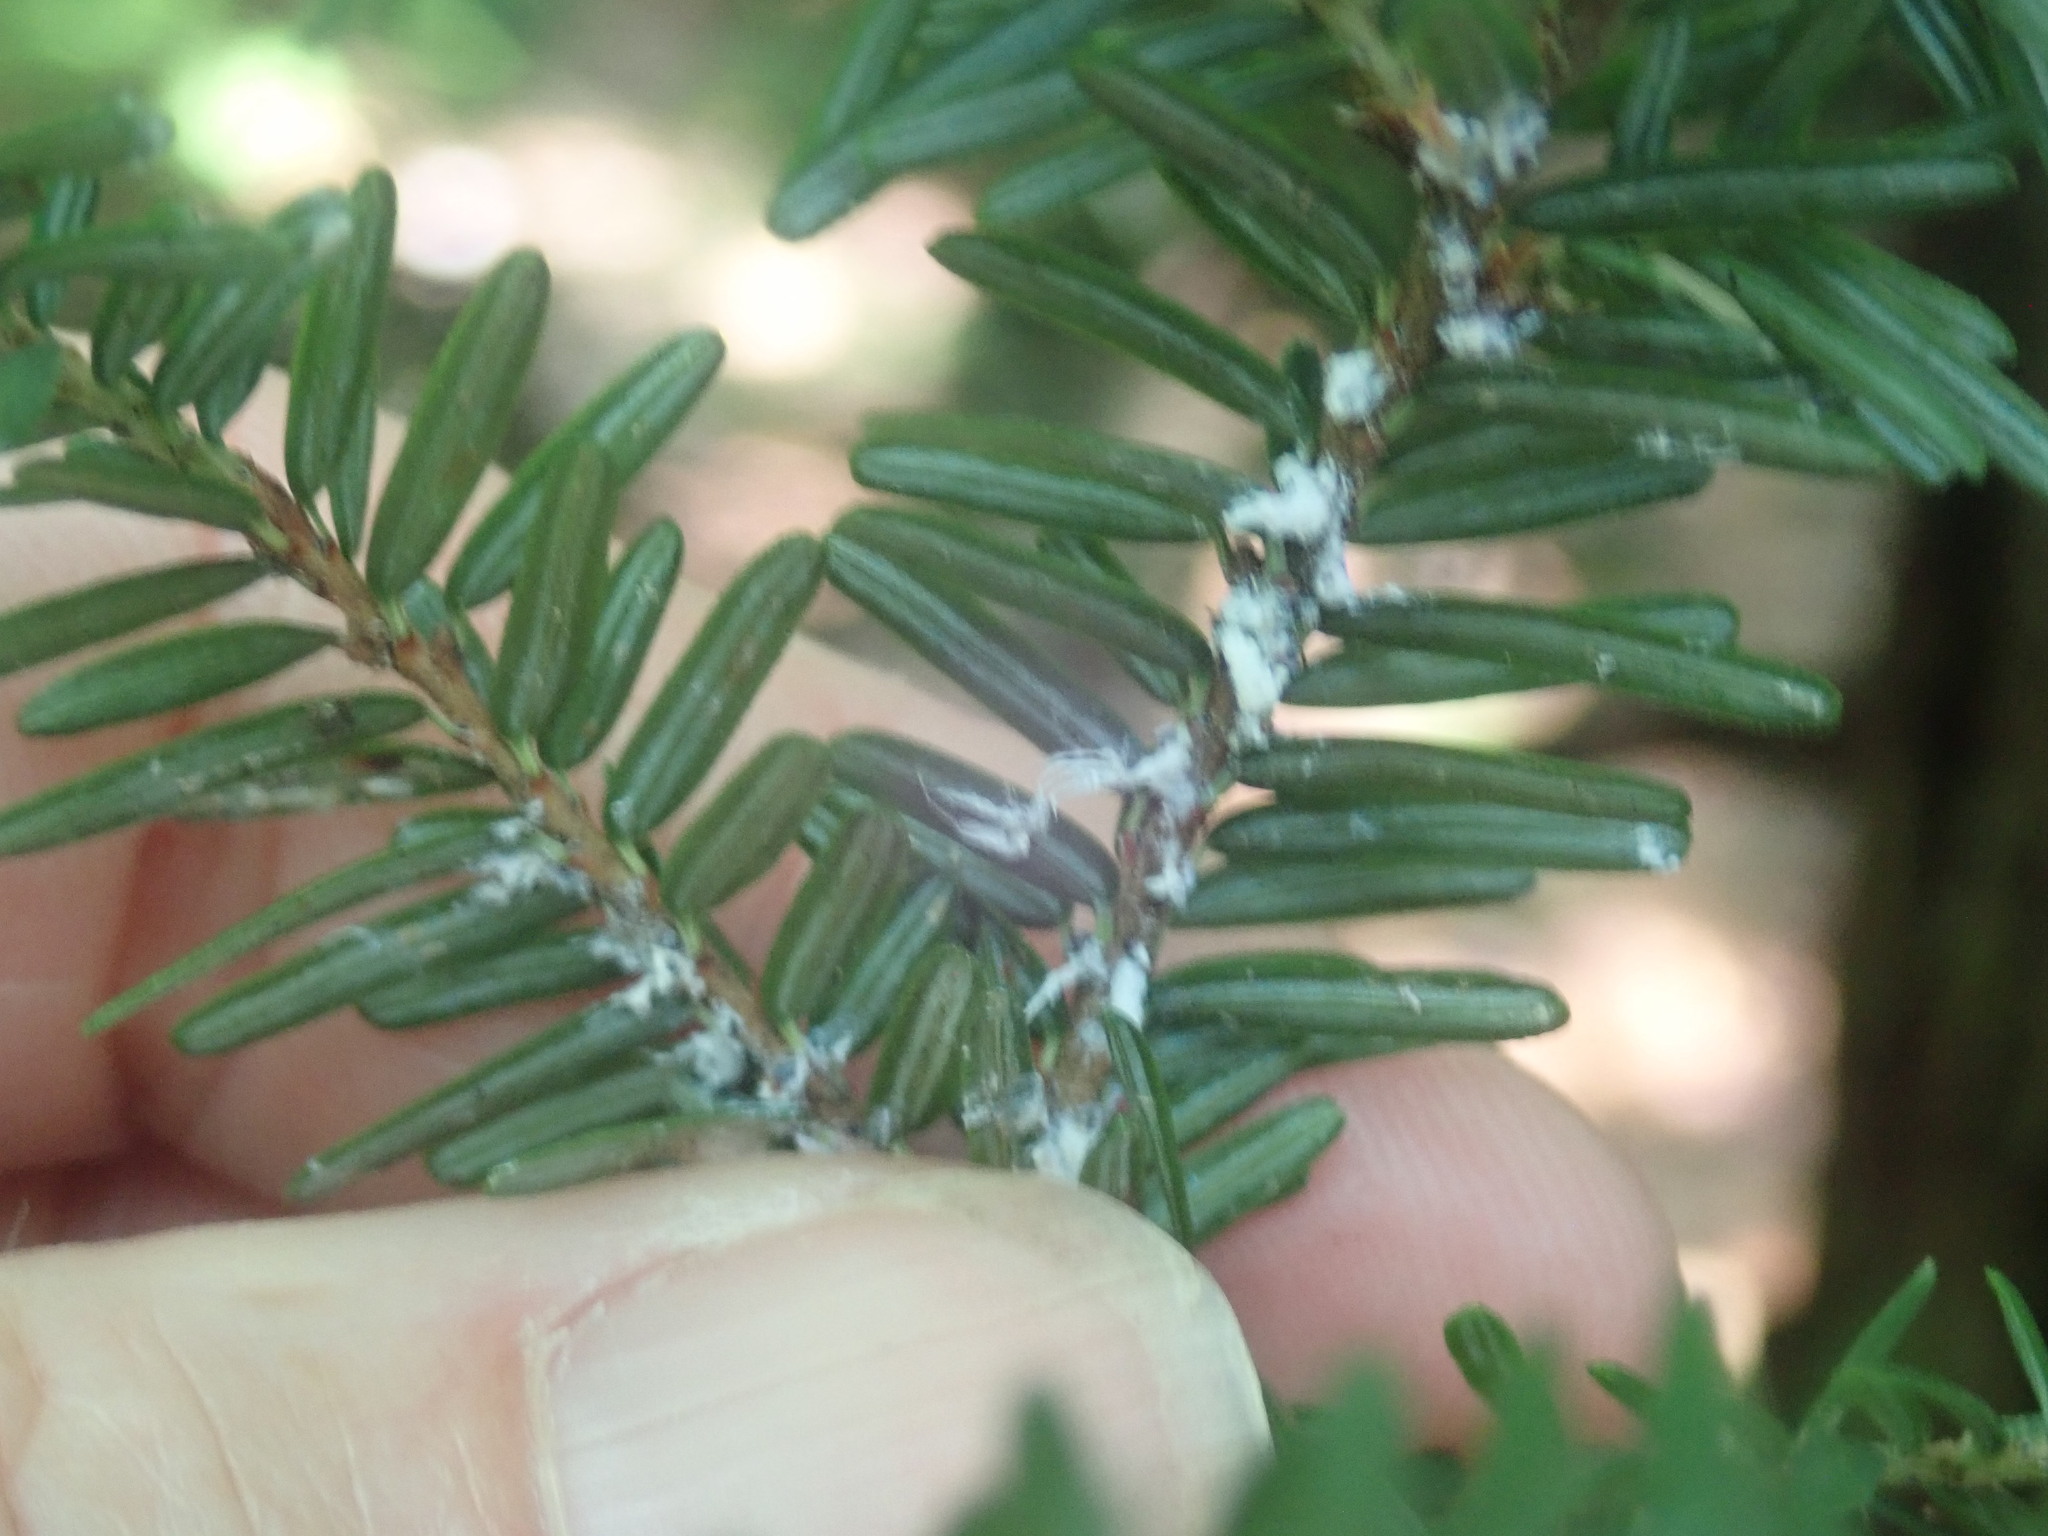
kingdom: Animalia
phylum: Arthropoda
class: Insecta
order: Hemiptera
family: Adelgidae
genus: Adelges
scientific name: Adelges tsugae
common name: Hemlock woolly adelgid
